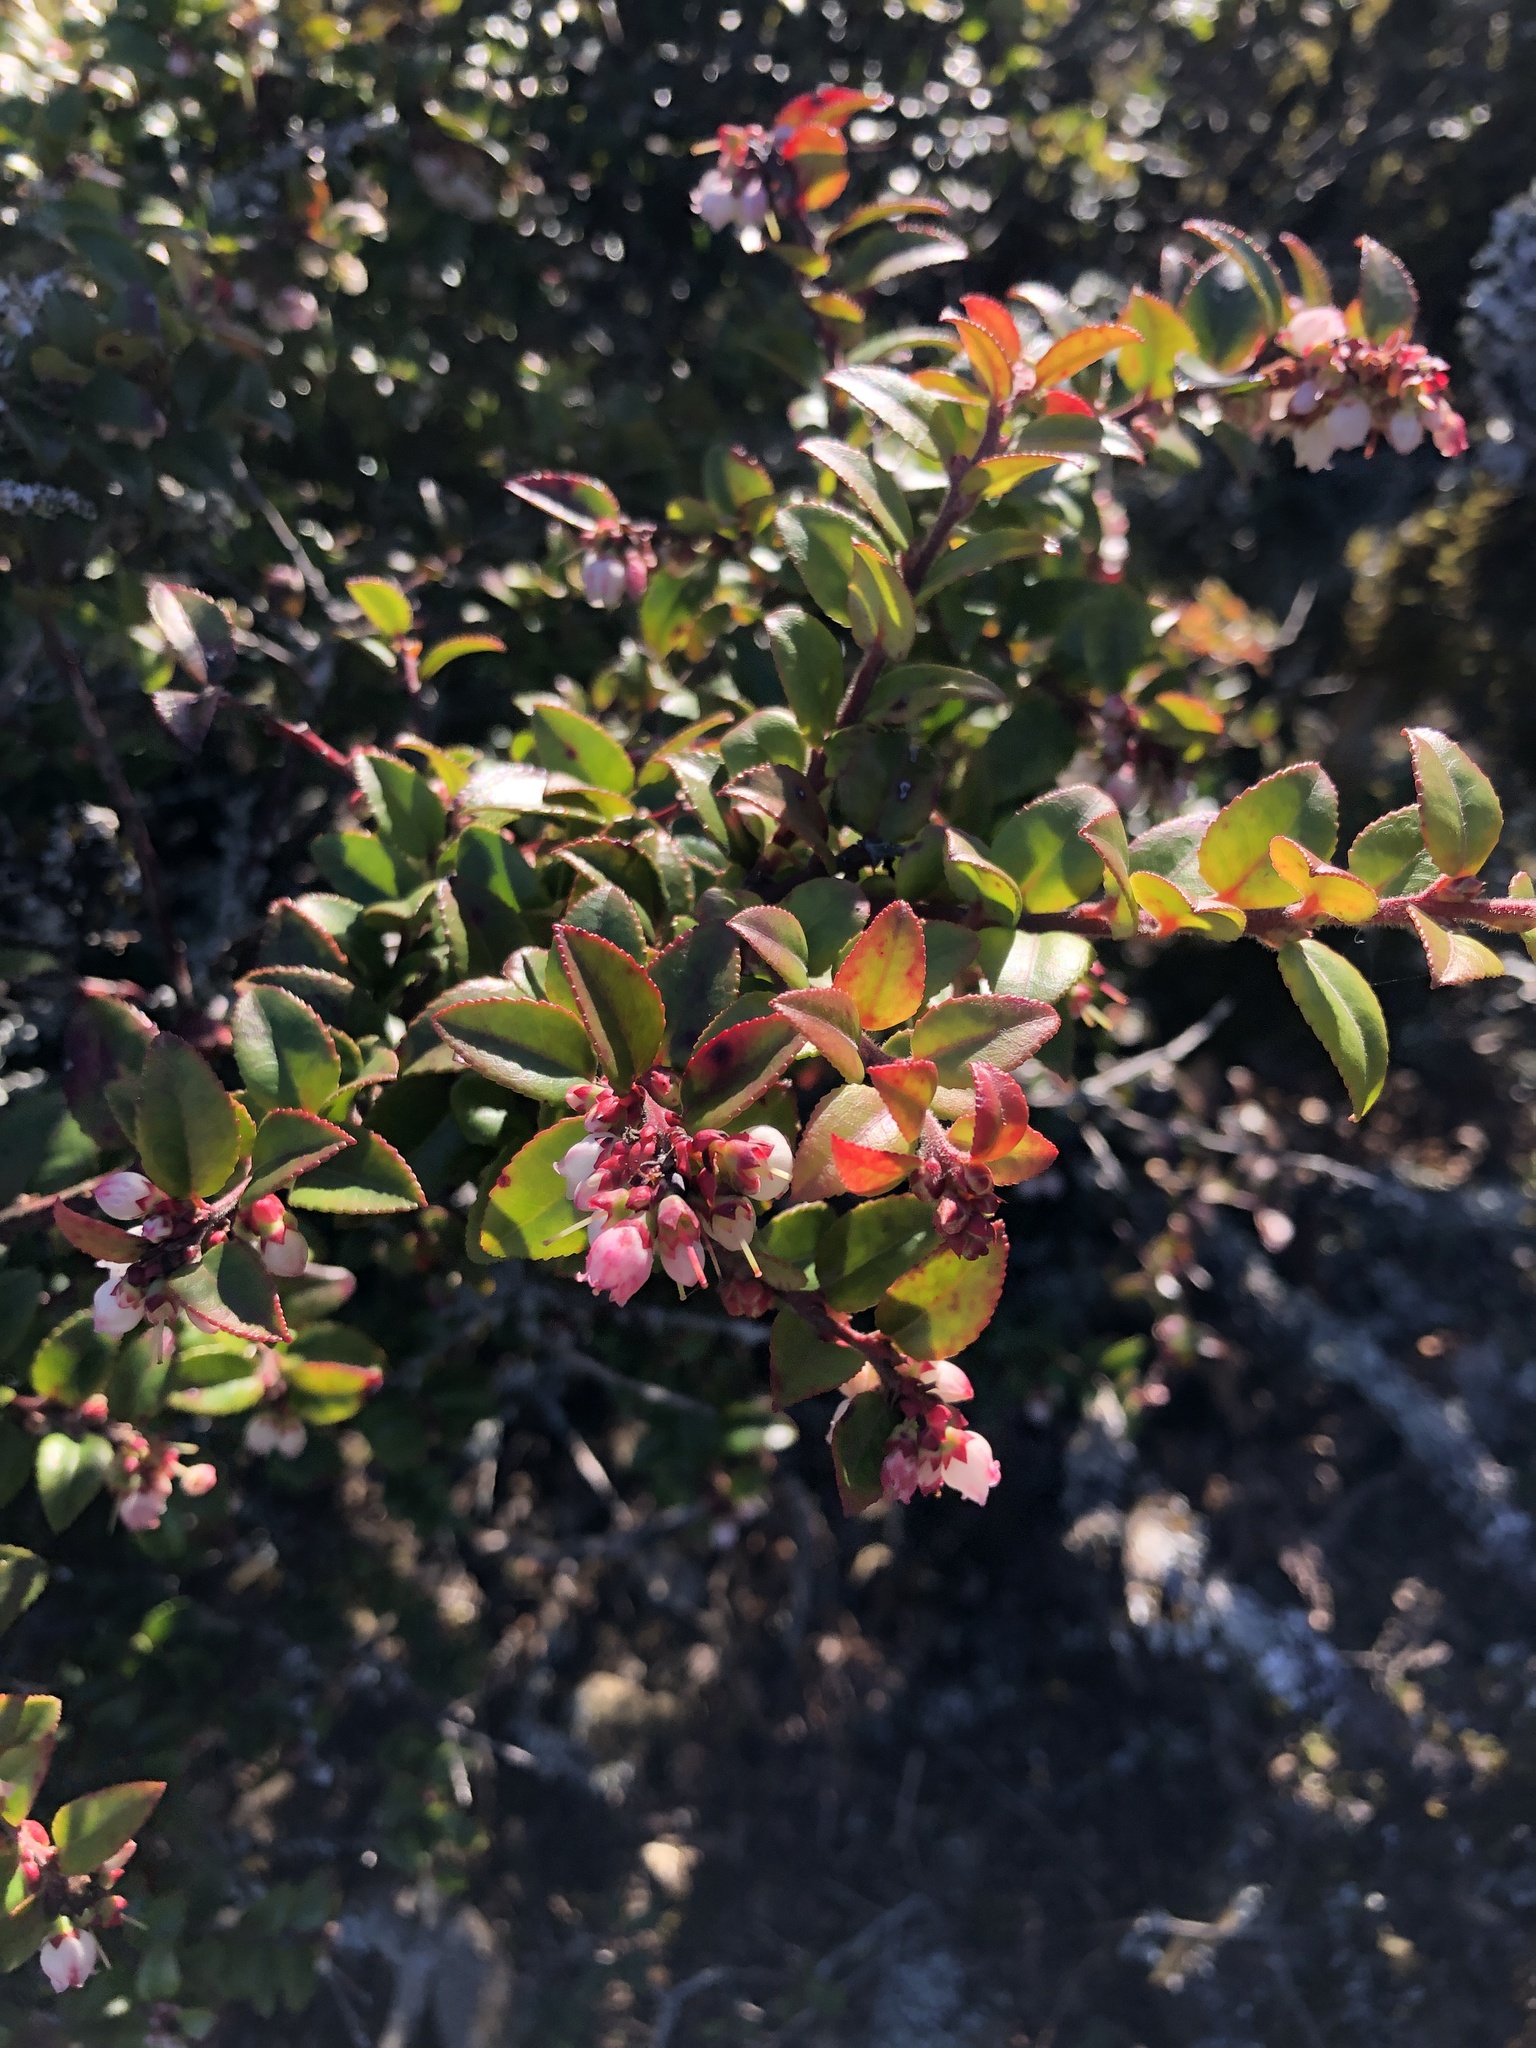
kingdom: Plantae
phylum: Tracheophyta
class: Magnoliopsida
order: Ericales
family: Ericaceae
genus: Vaccinium
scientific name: Vaccinium ovatum
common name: California-huckleberry
